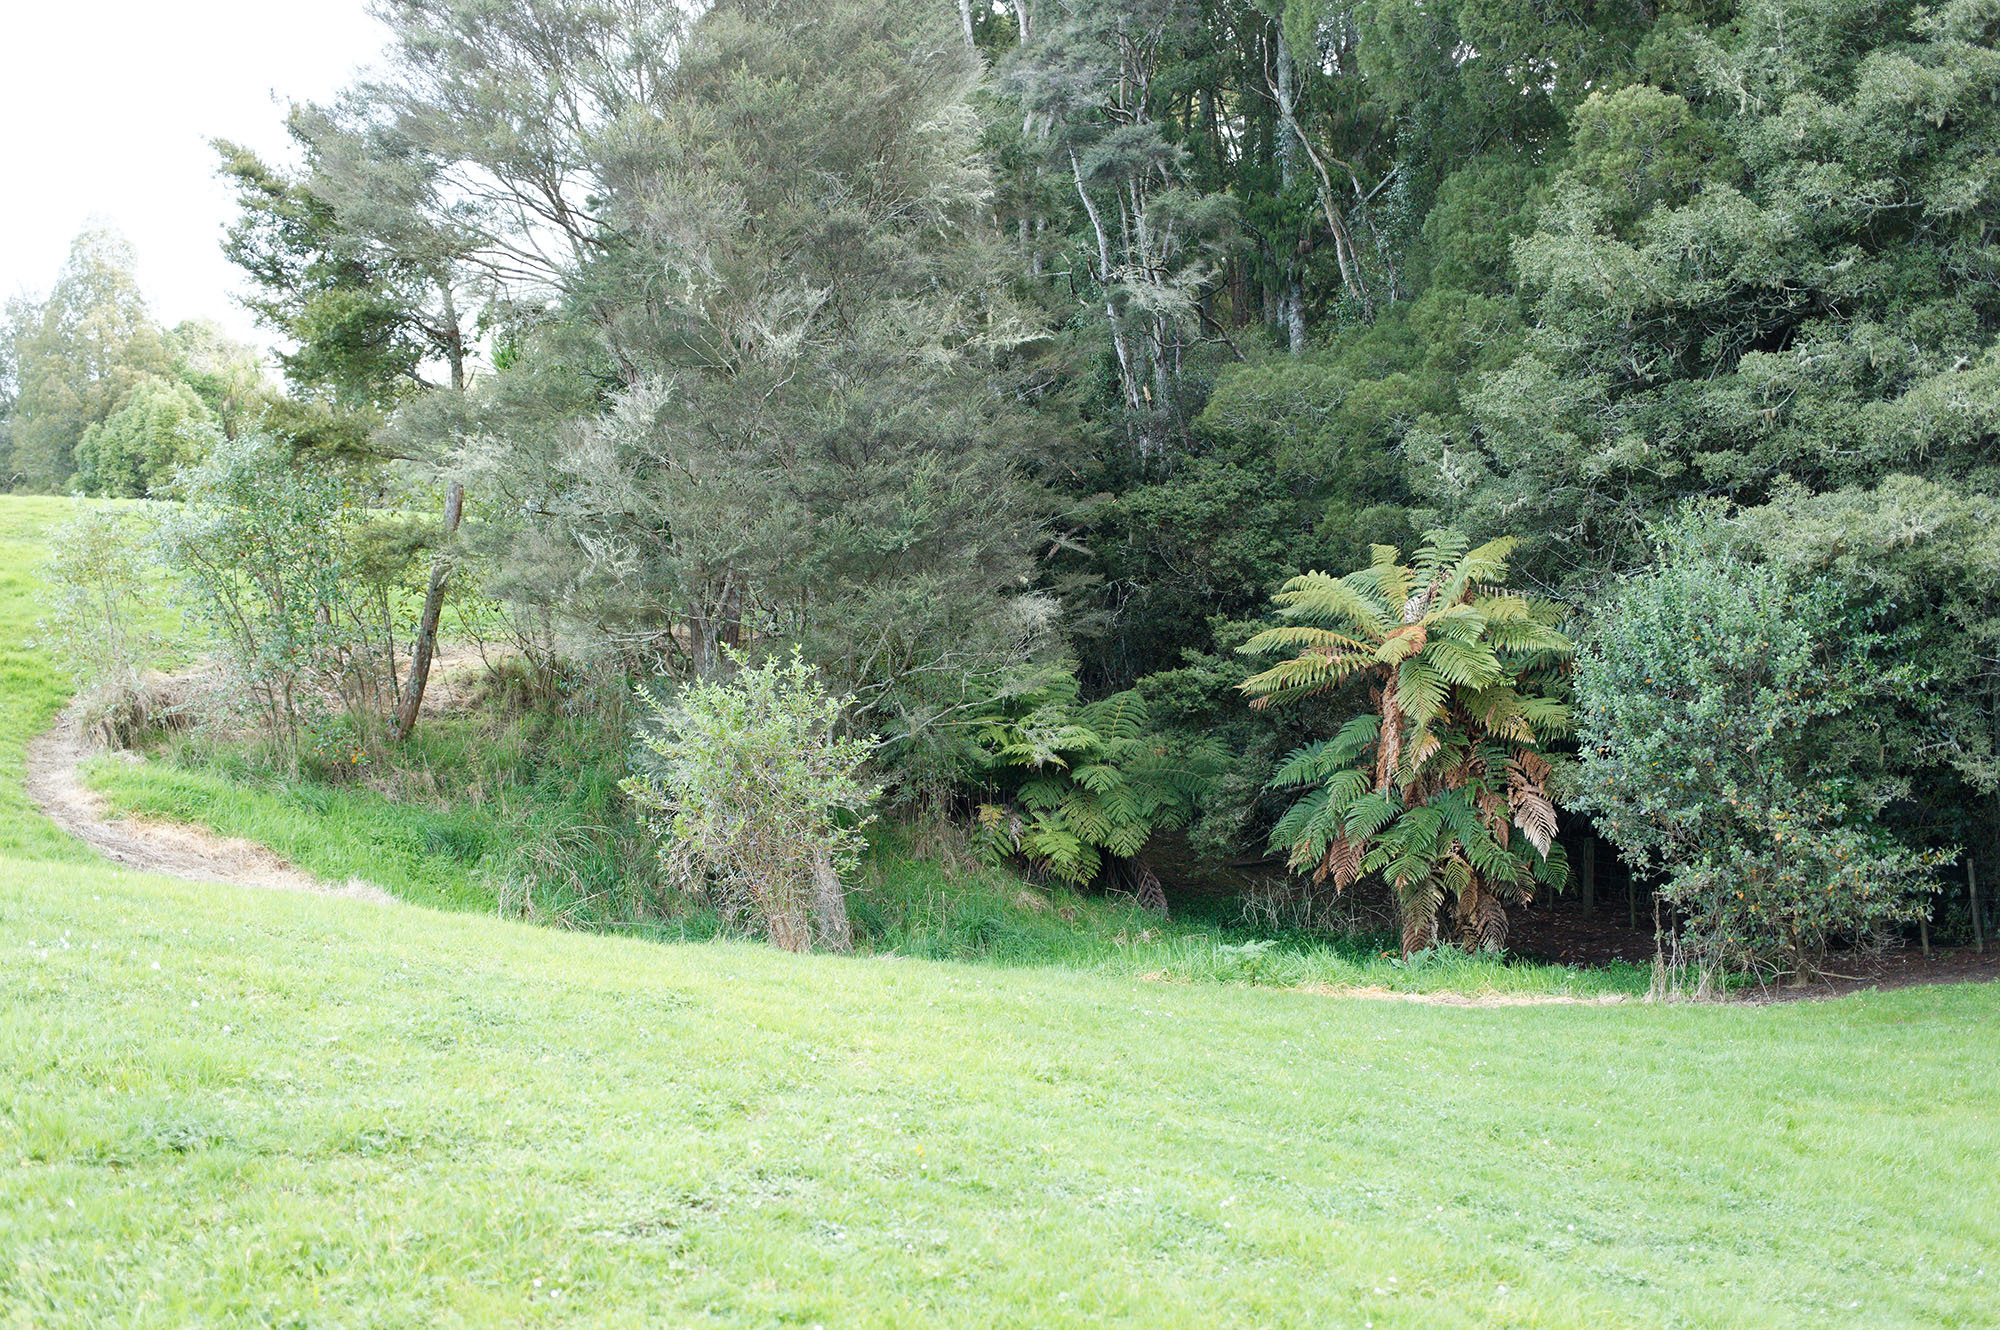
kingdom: Plantae
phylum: Tracheophyta
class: Polypodiopsida
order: Cyatheales
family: Dicksoniaceae
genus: Dicksonia
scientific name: Dicksonia squarrosa
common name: Hard treefern
